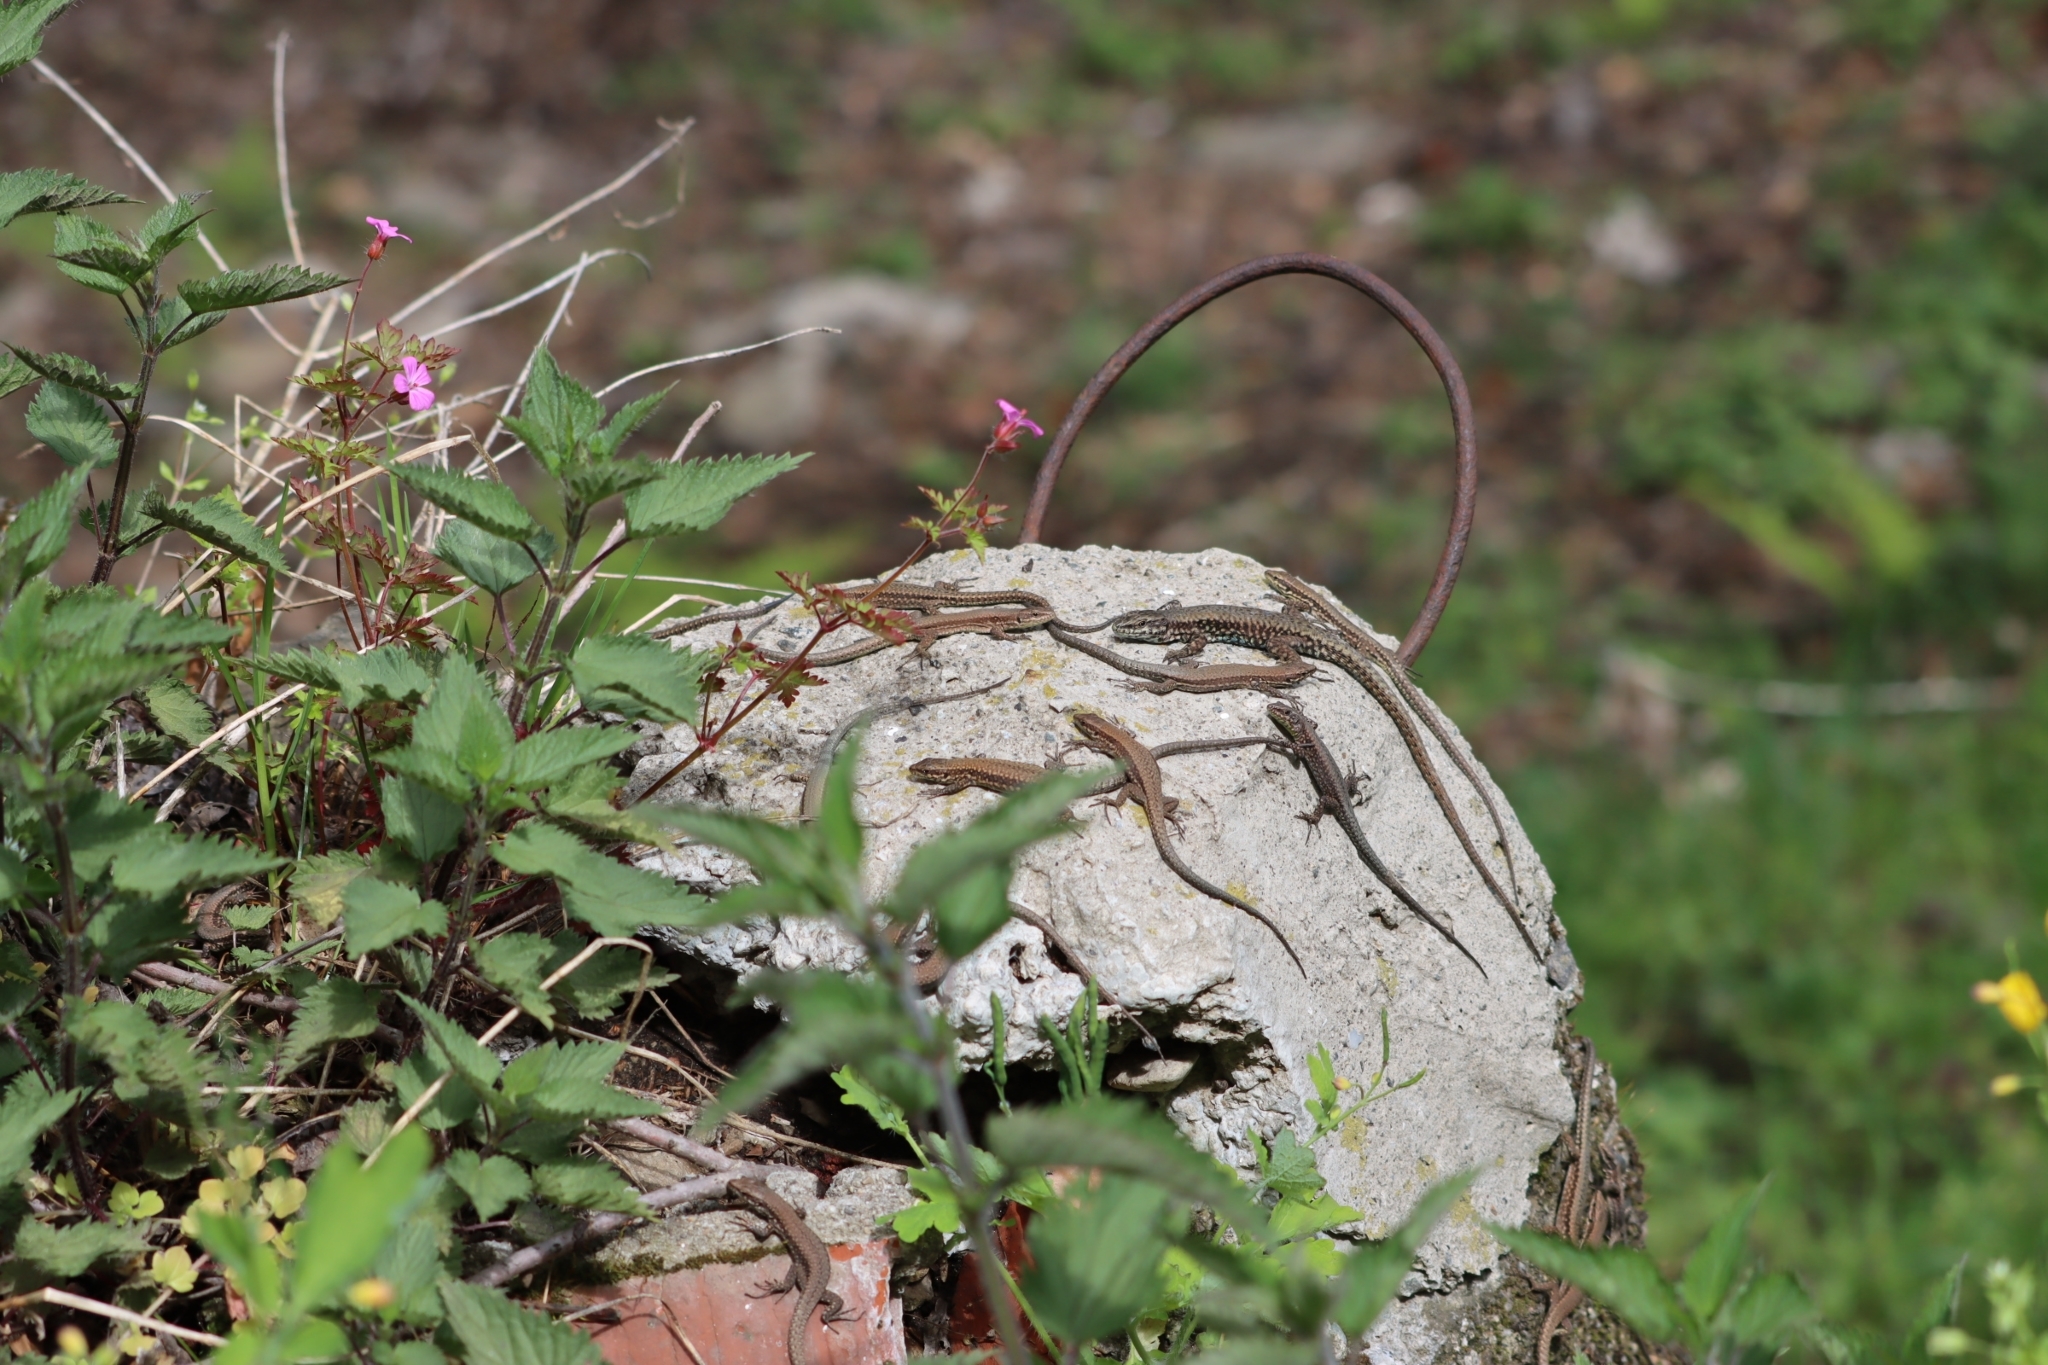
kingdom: Animalia
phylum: Chordata
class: Squamata
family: Lacertidae
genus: Podarcis
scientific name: Podarcis muralis
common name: Common wall lizard
